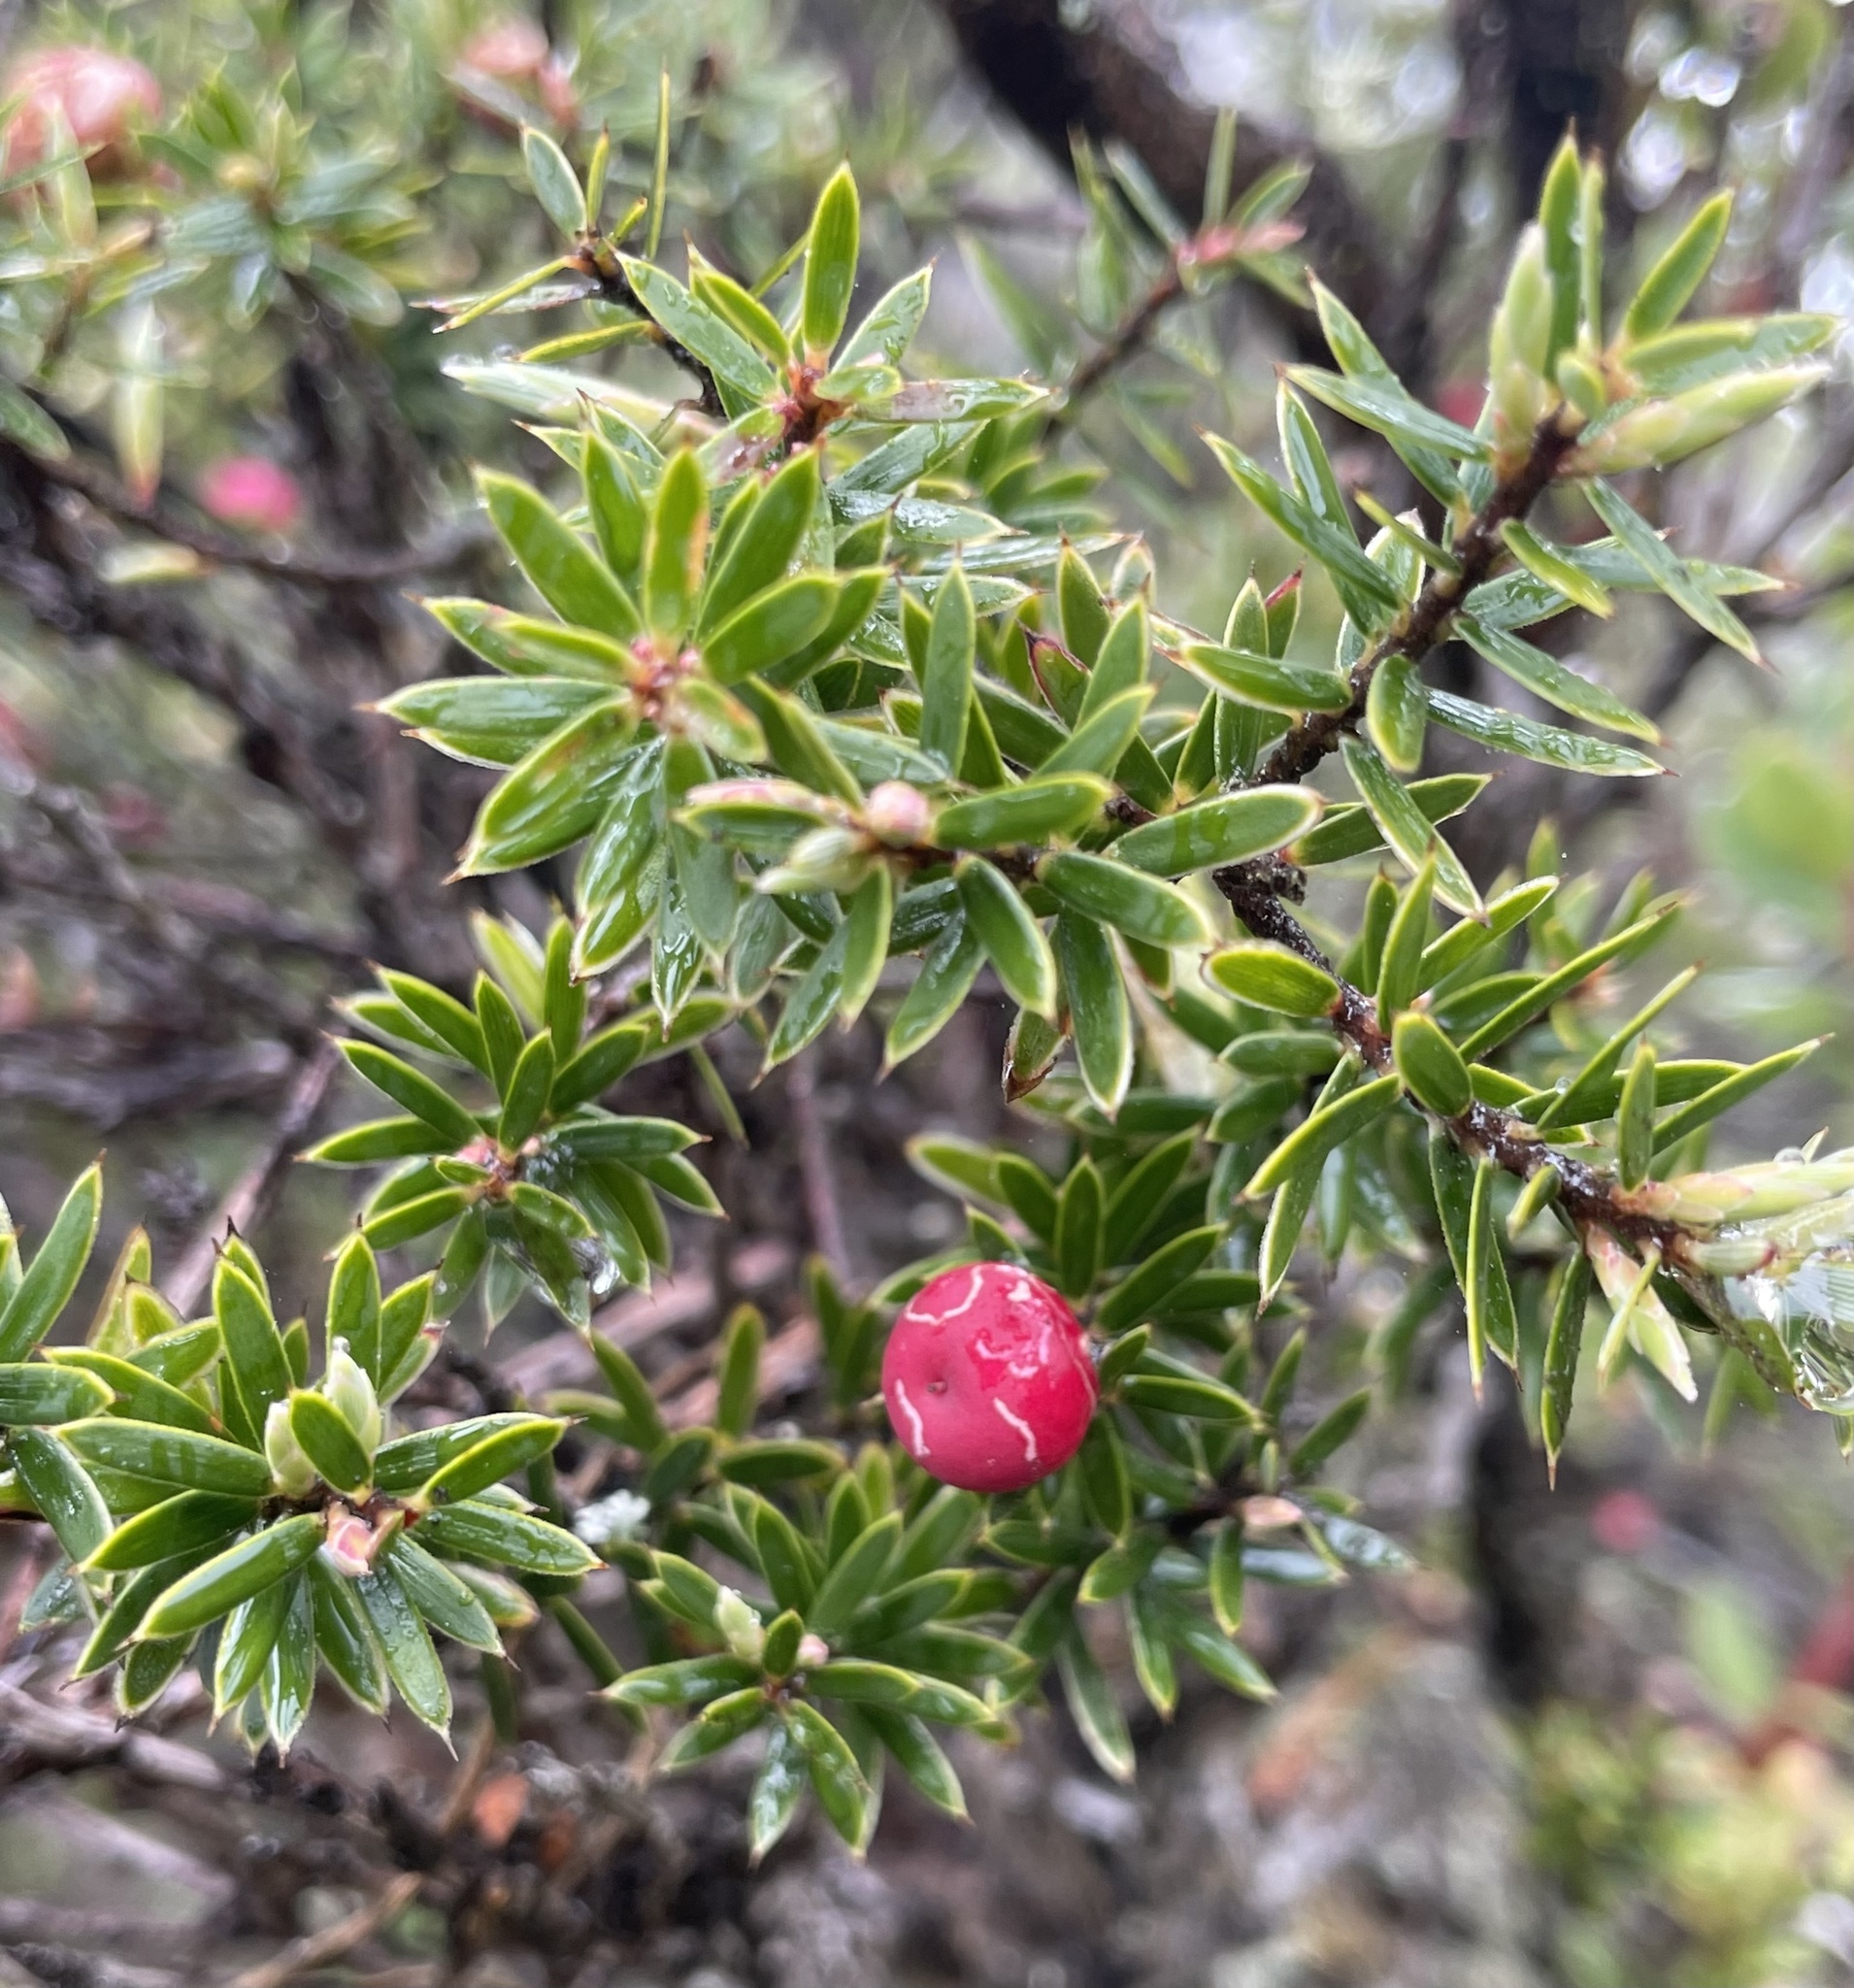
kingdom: Plantae
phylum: Tracheophyta
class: Magnoliopsida
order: Ericales
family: Ericaceae
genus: Leptecophylla
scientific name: Leptecophylla tameiameiae
